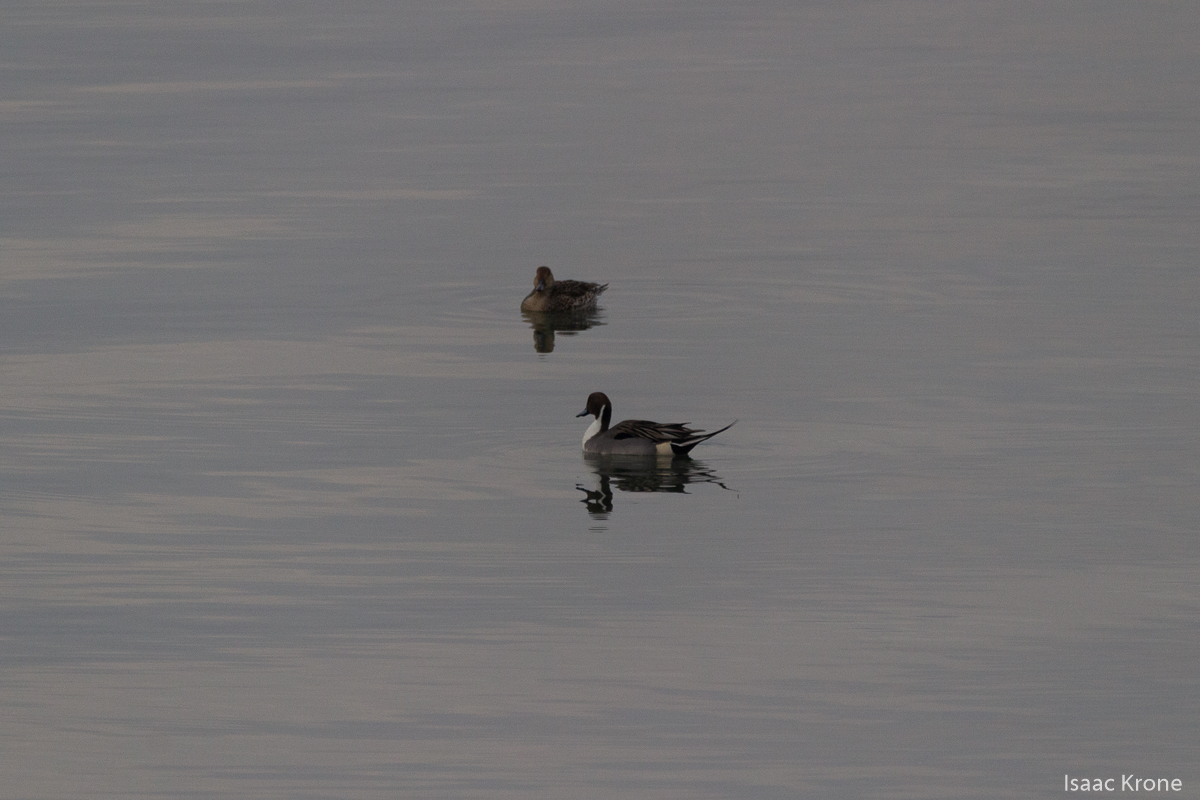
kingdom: Animalia
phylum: Chordata
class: Aves
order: Anseriformes
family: Anatidae
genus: Anas
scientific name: Anas acuta
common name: Northern pintail
